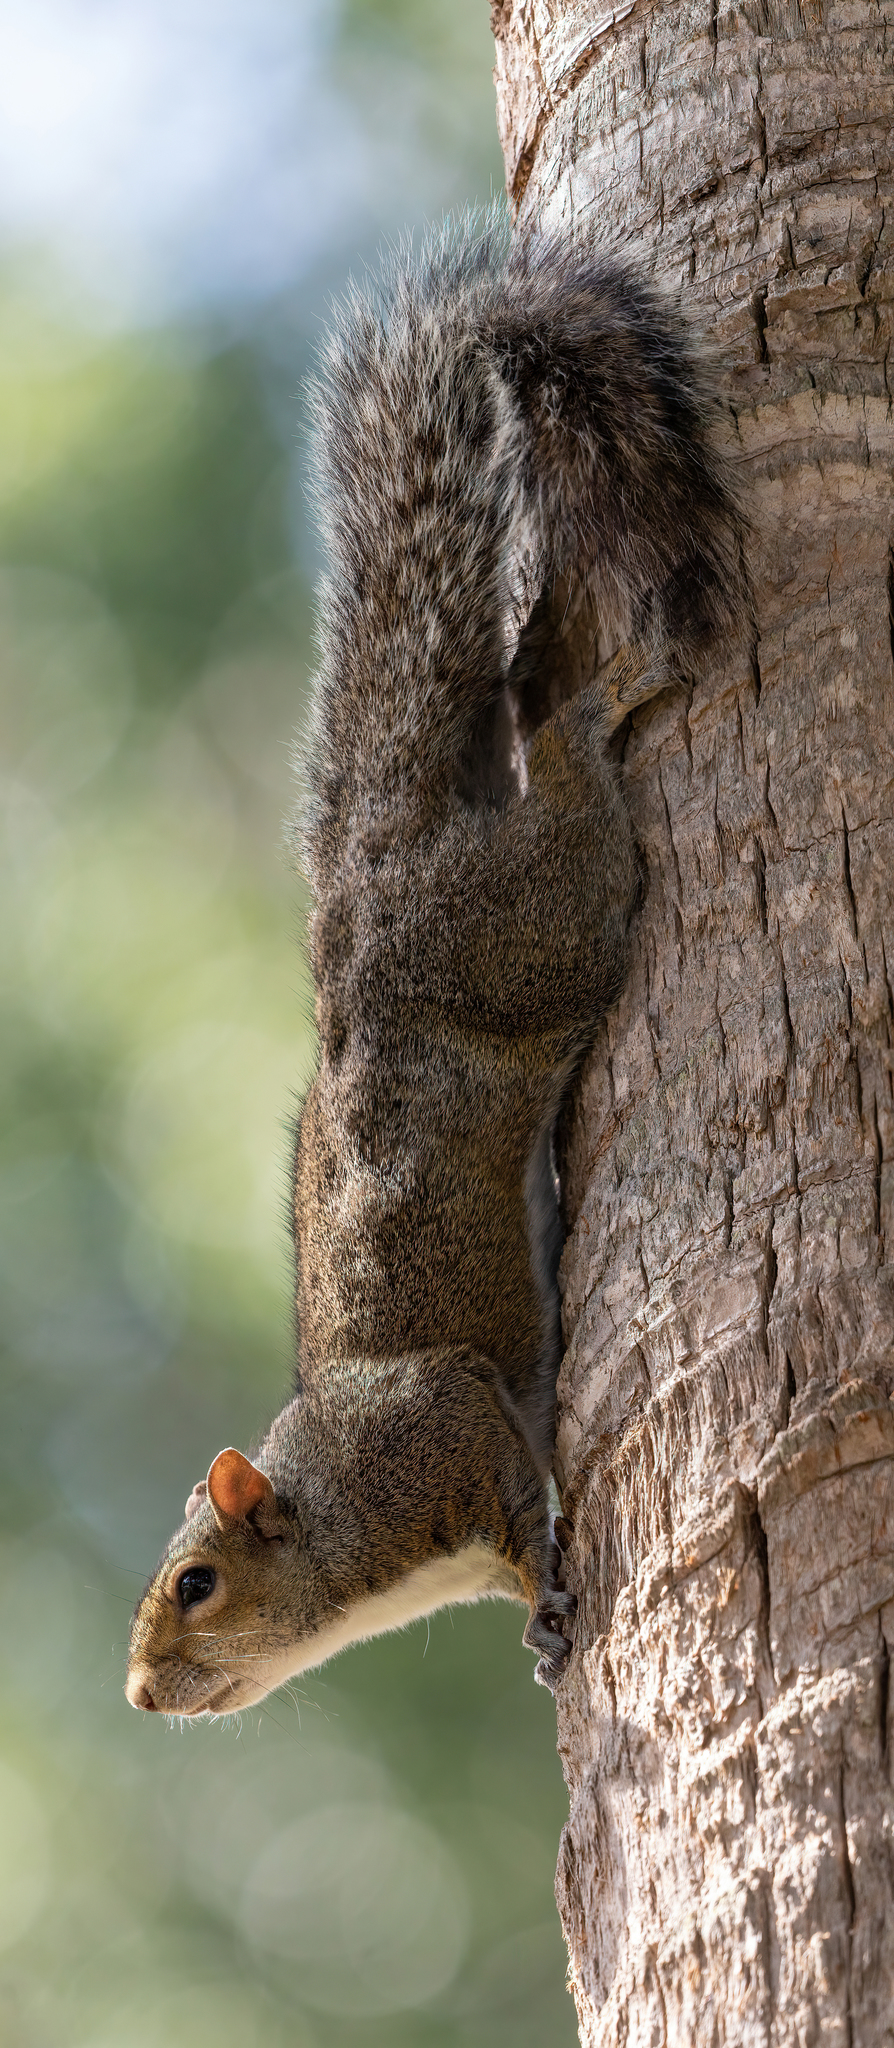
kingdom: Animalia
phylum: Chordata
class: Mammalia
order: Rodentia
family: Sciuridae
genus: Sciurus
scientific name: Sciurus carolinensis
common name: Eastern gray squirrel
